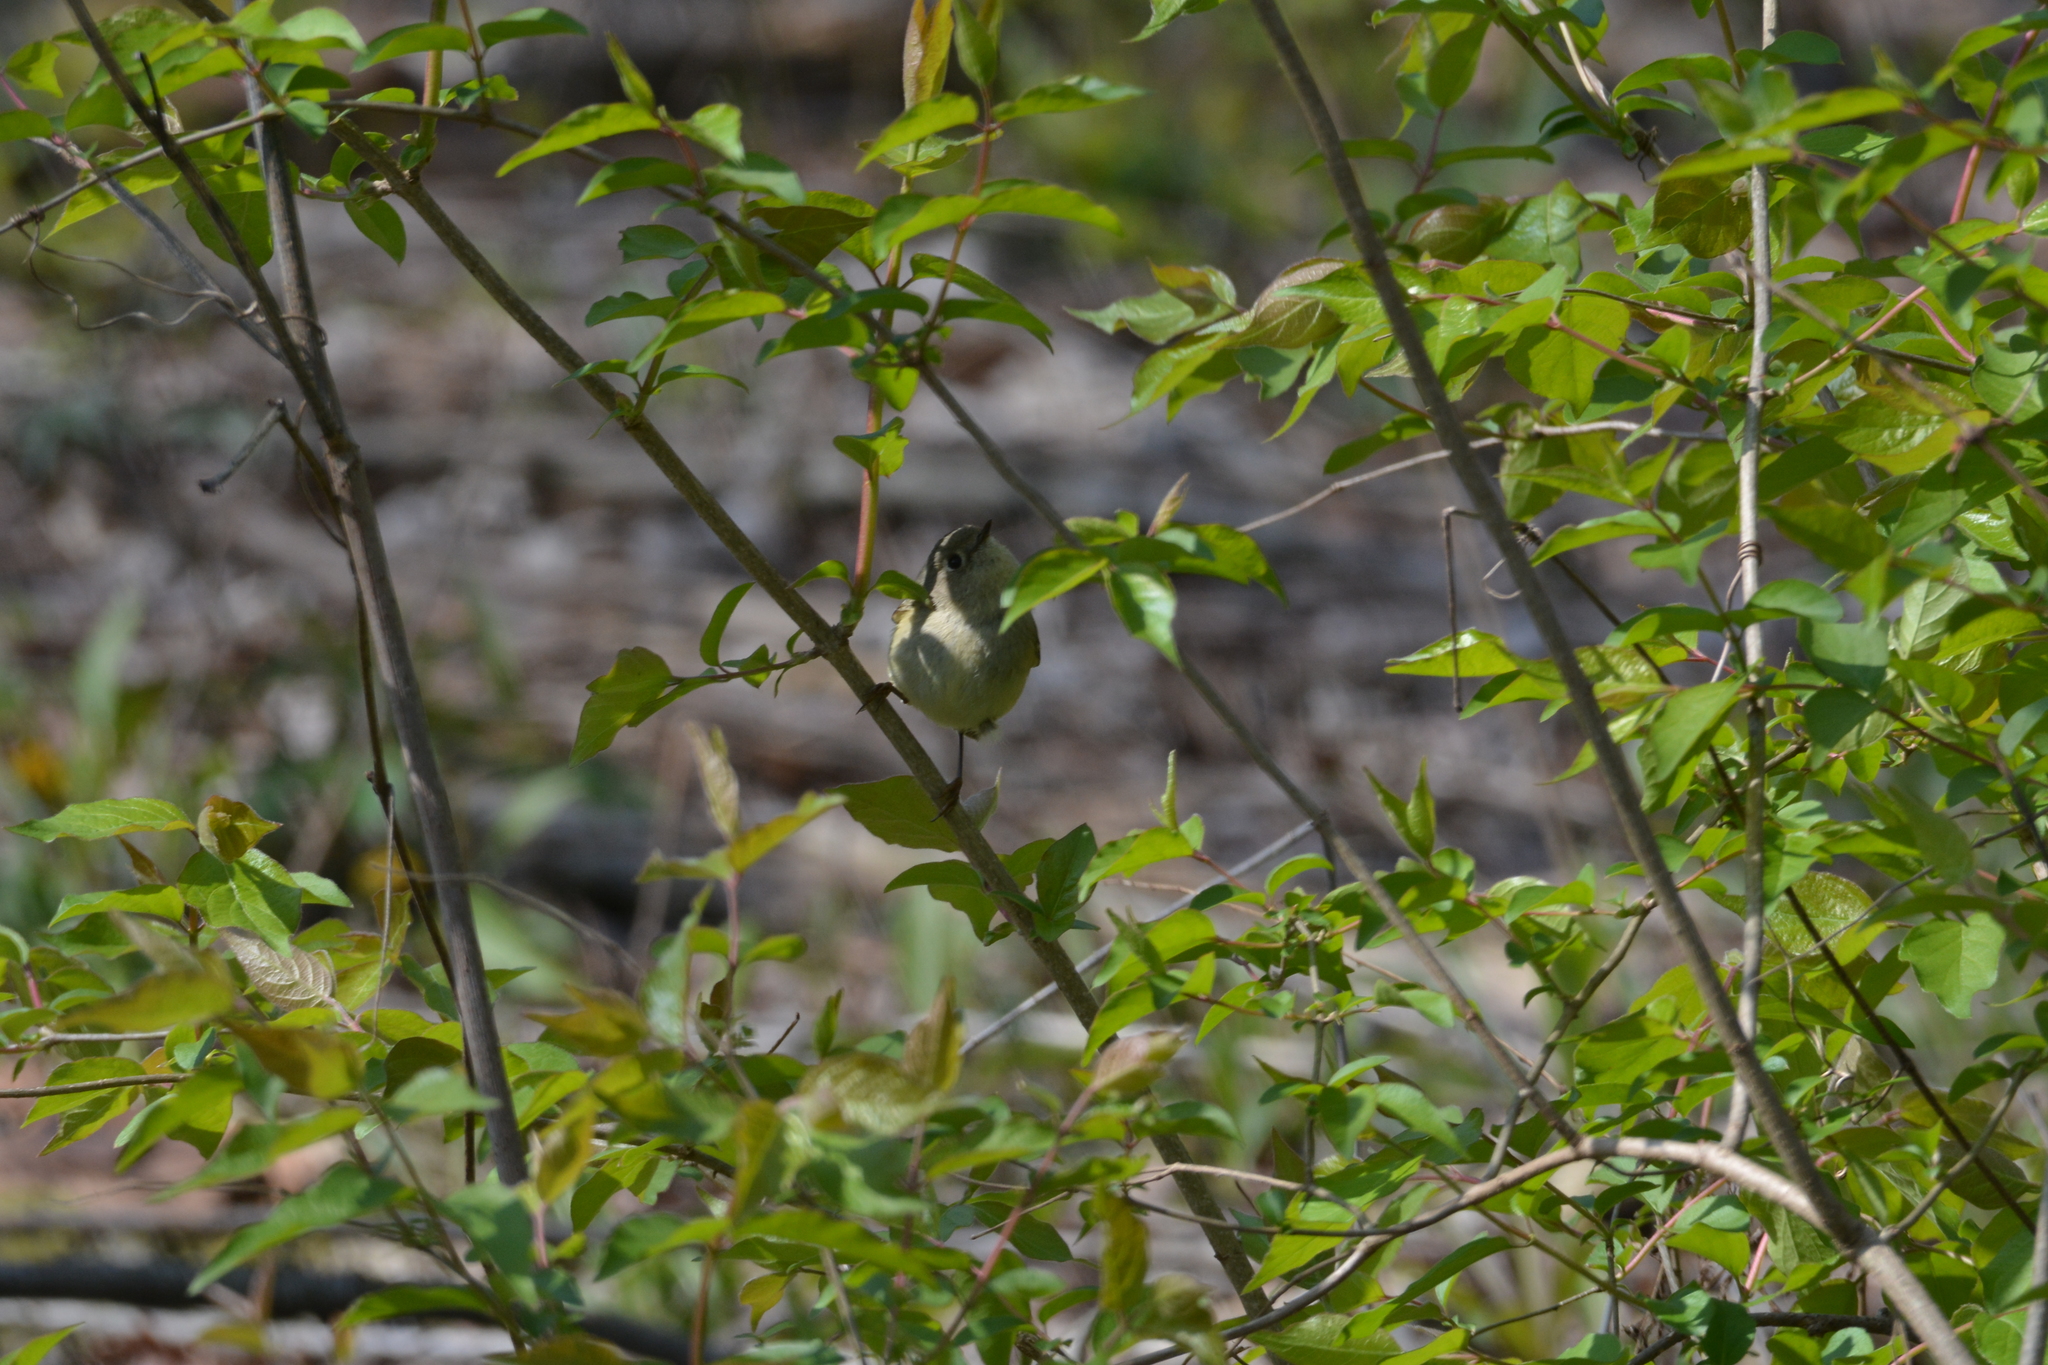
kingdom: Animalia
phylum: Chordata
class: Aves
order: Passeriformes
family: Regulidae
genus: Regulus
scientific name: Regulus calendula
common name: Ruby-crowned kinglet
